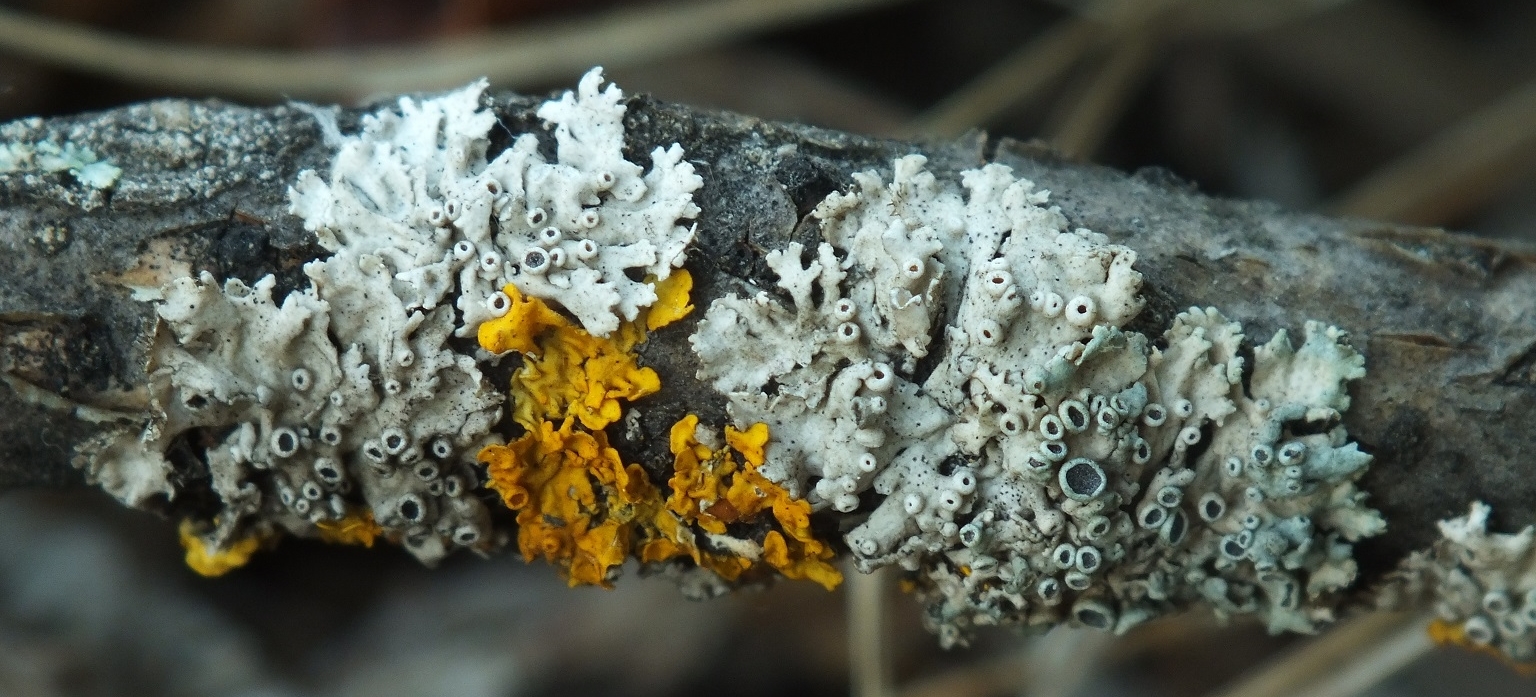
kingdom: Fungi
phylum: Ascomycota
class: Lecanoromycetes
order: Teloschistales
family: Teloschistaceae
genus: Xanthoria
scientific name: Xanthoria parietina
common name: Common orange lichen
